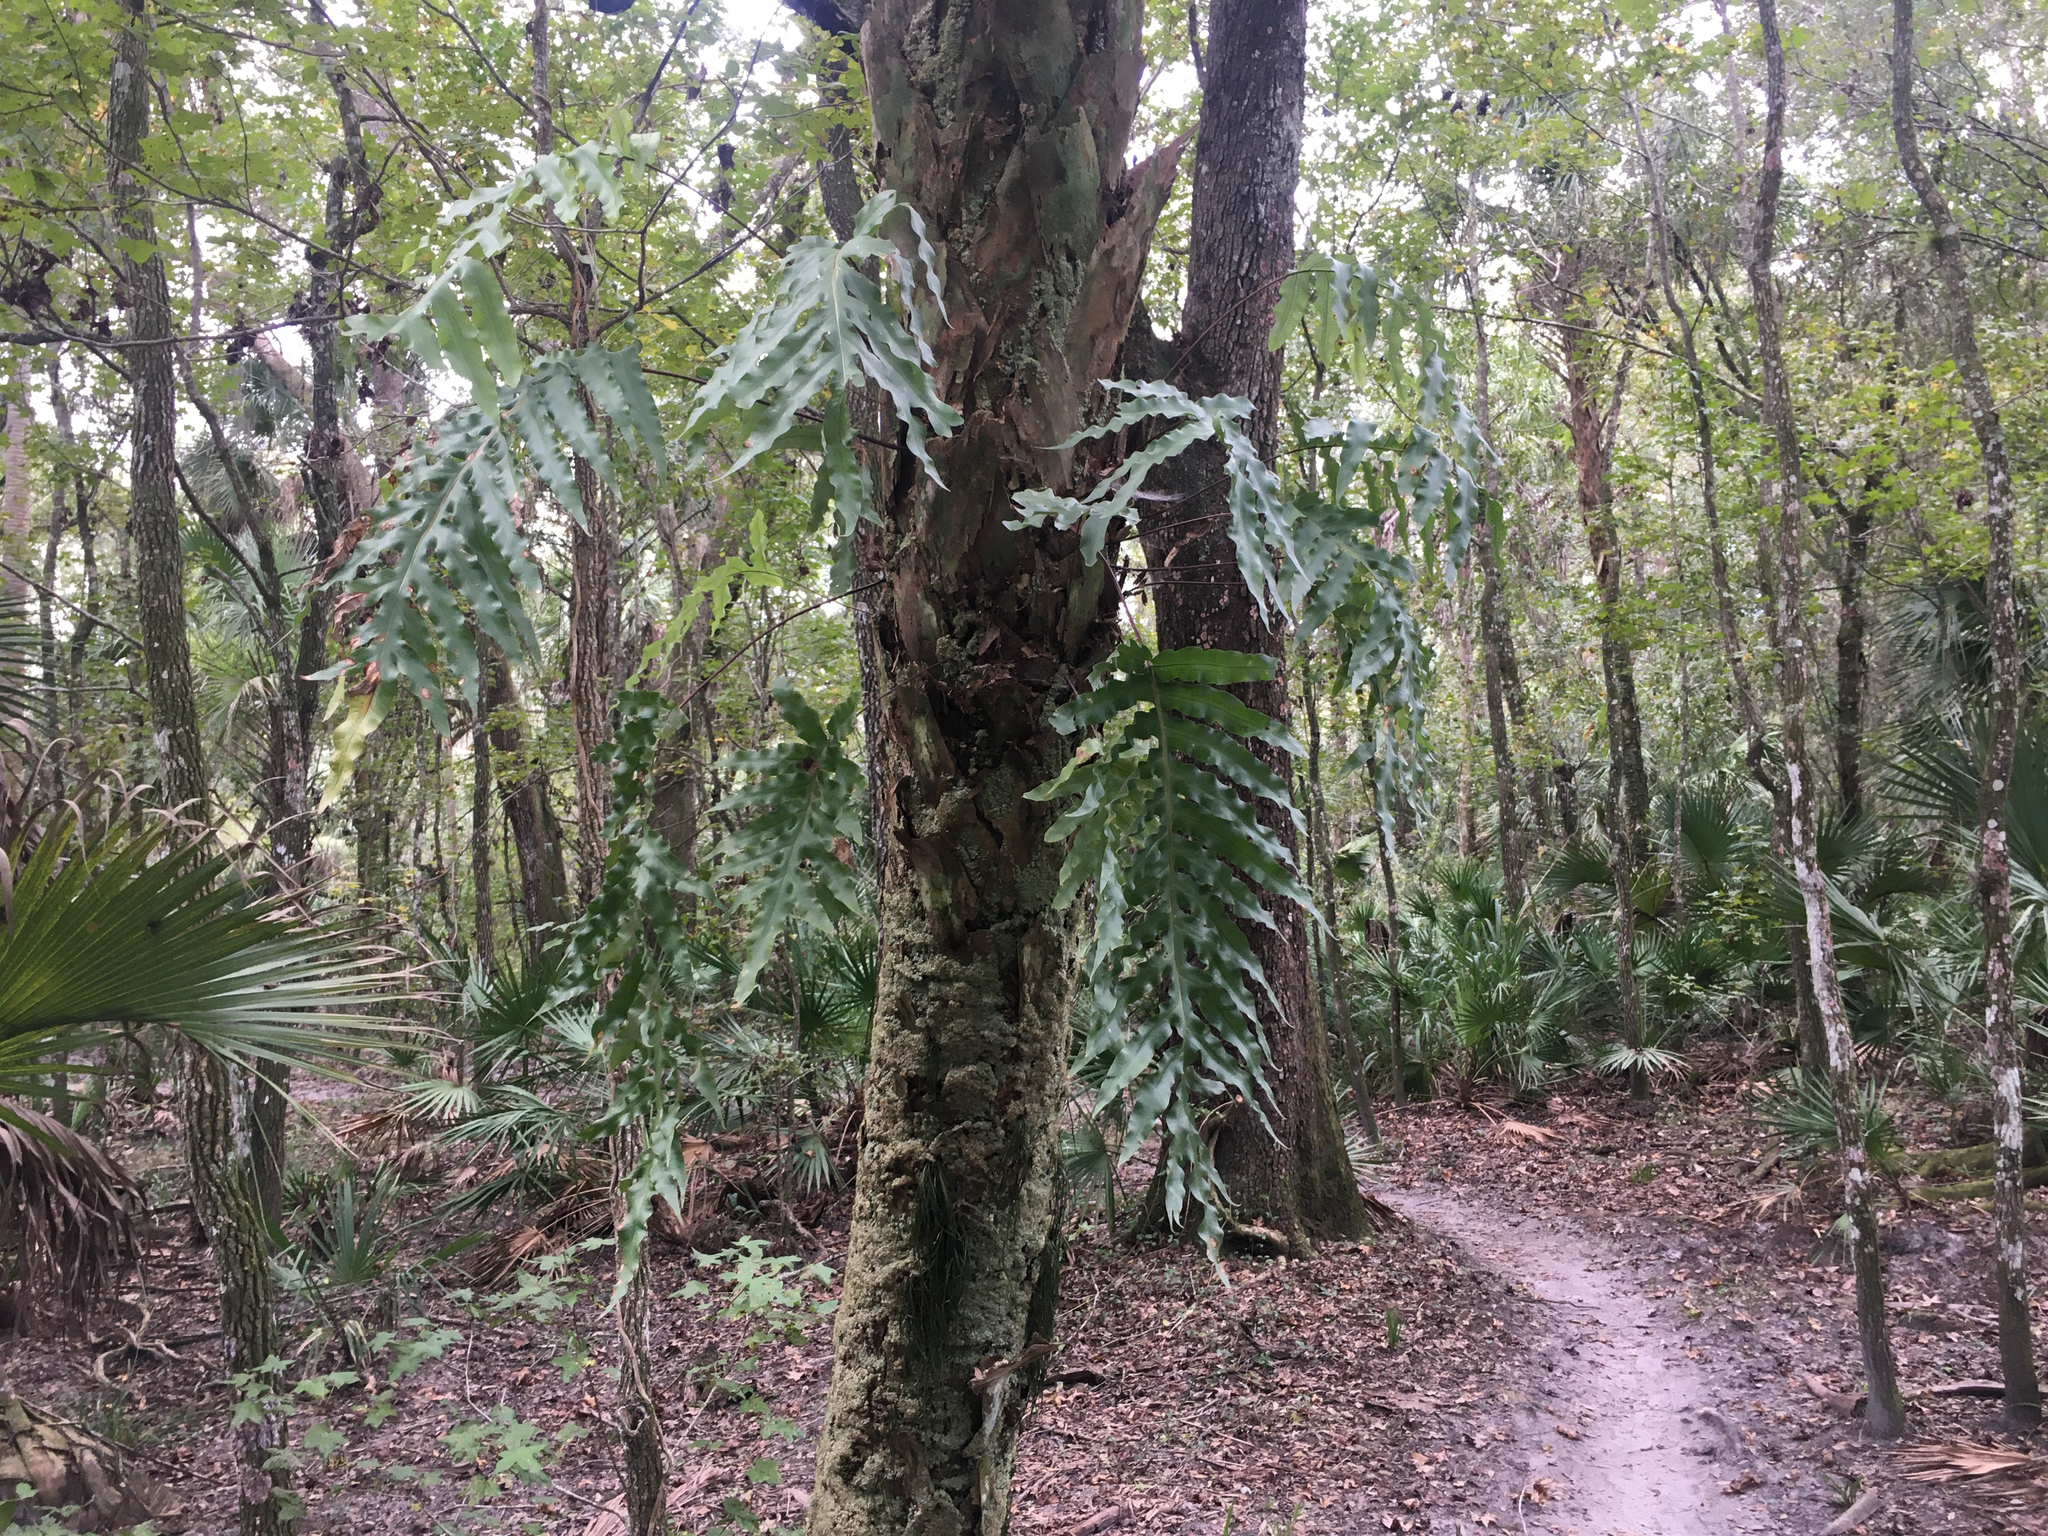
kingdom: Plantae
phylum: Tracheophyta
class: Polypodiopsida
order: Polypodiales
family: Polypodiaceae
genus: Phlebodium
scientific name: Phlebodium aureum
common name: Gold-foot fern
